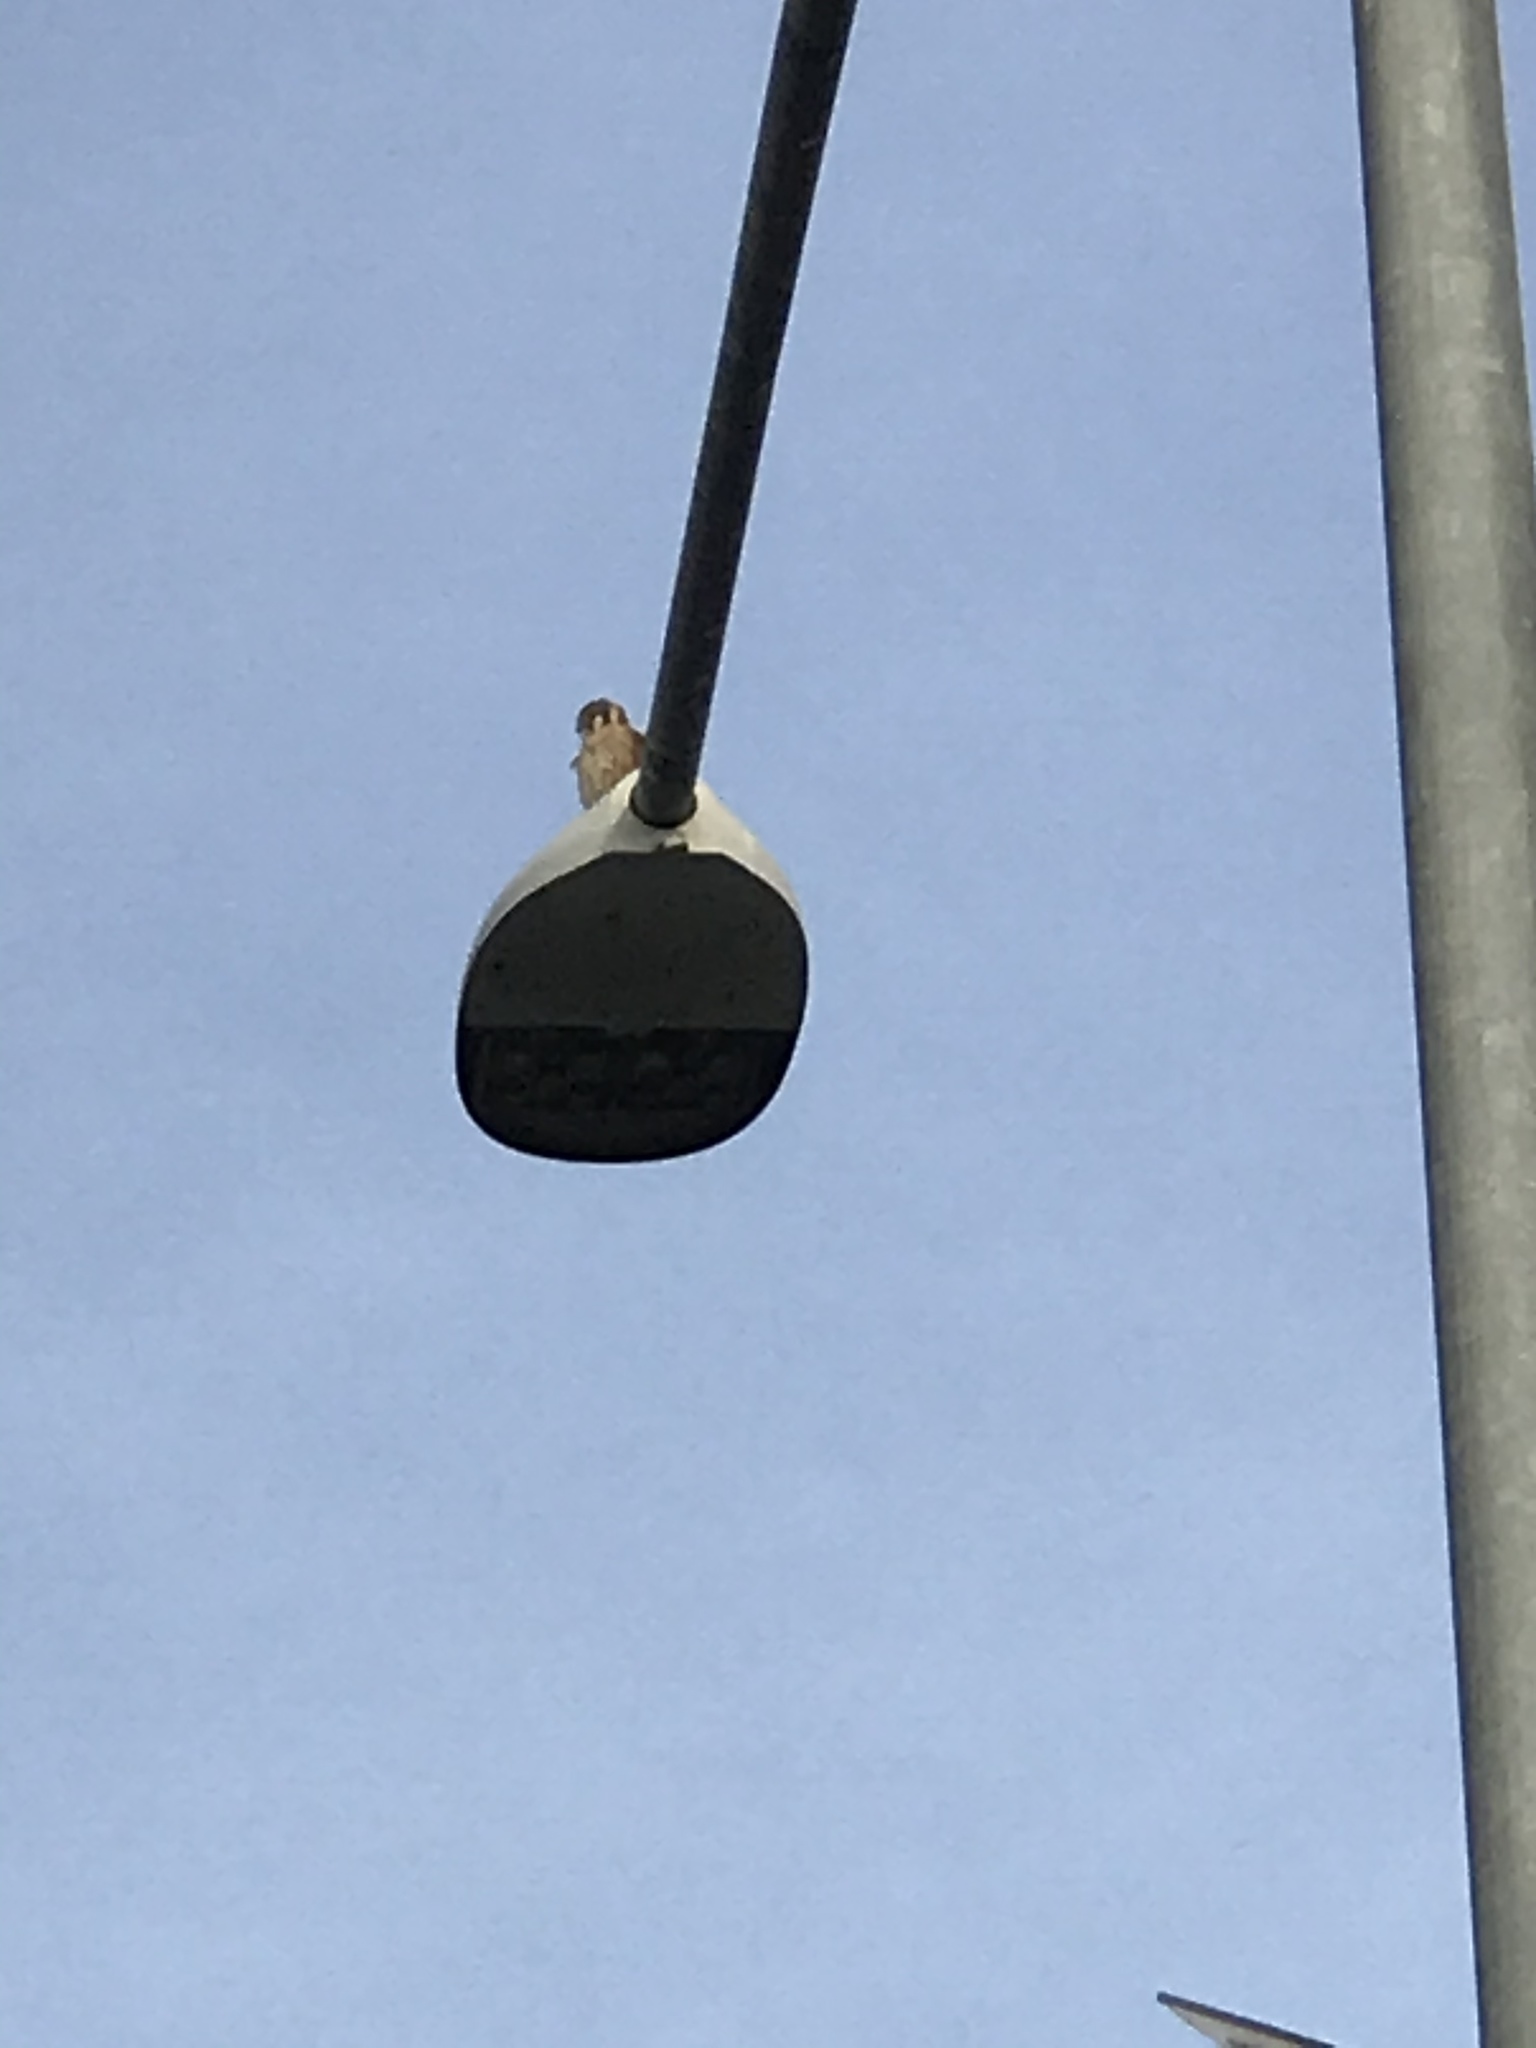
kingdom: Animalia
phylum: Chordata
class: Aves
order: Falconiformes
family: Falconidae
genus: Falco
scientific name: Falco sparverius
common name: American kestrel
